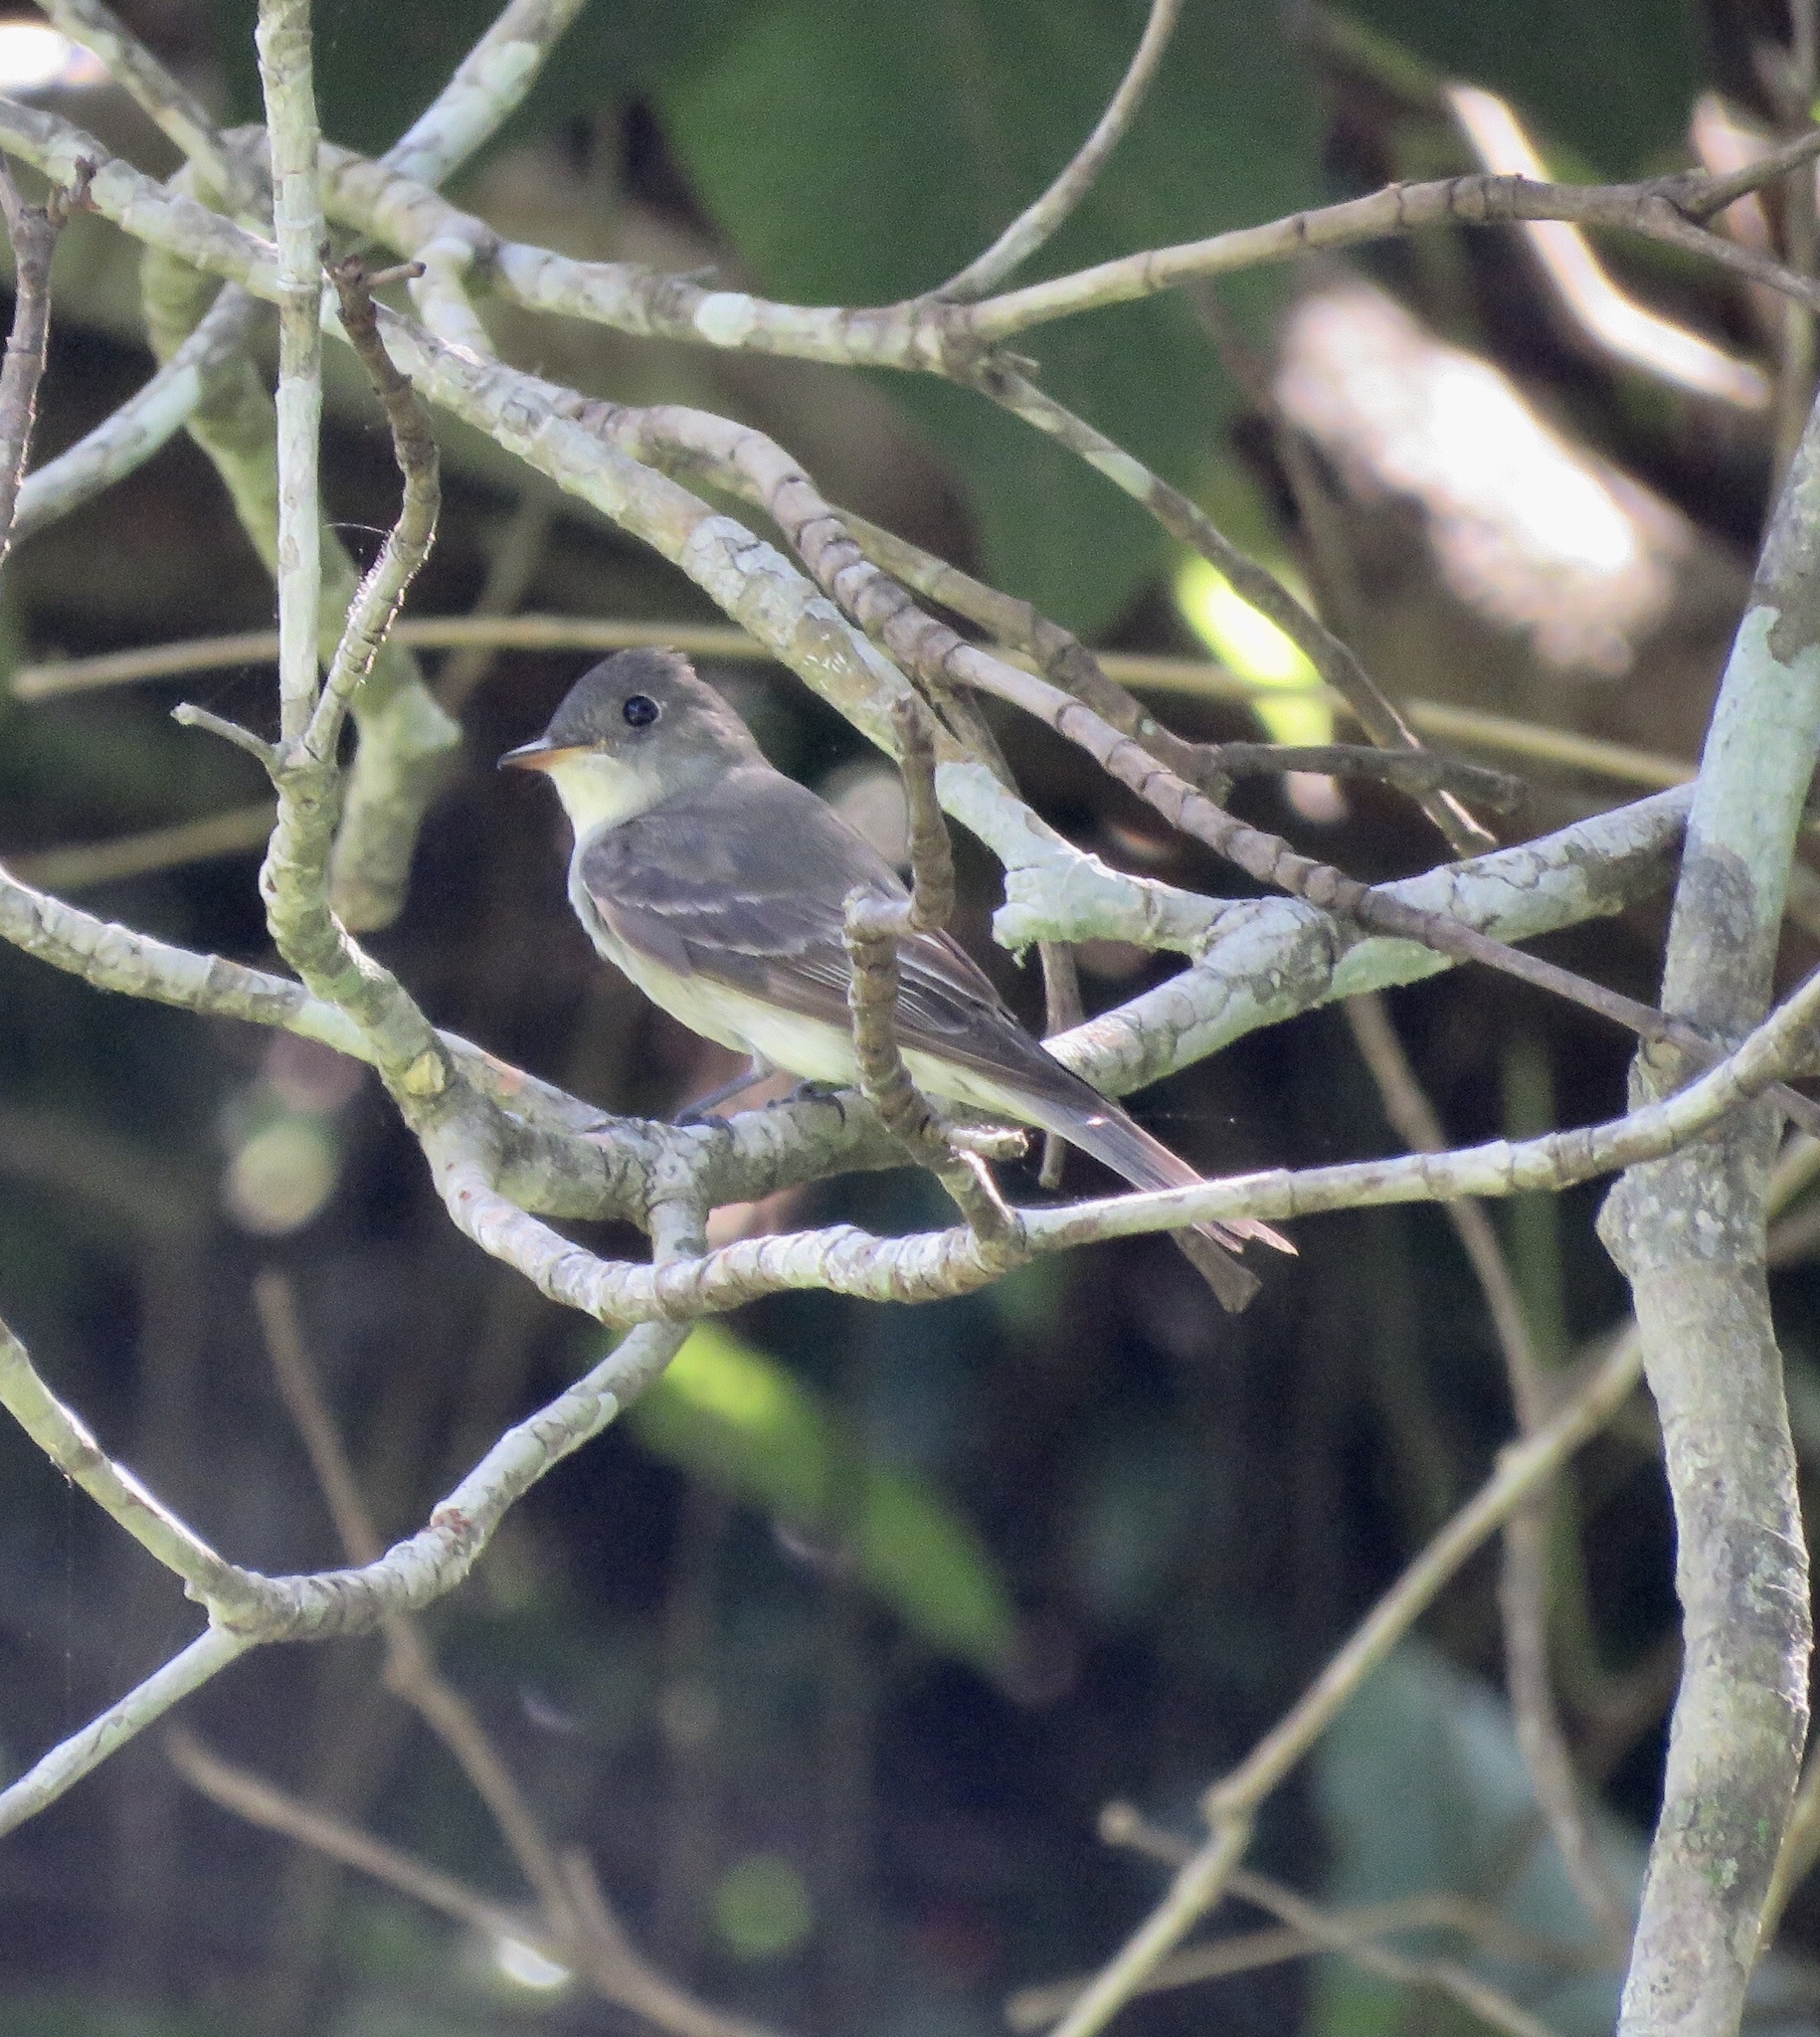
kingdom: Animalia
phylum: Chordata
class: Aves
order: Passeriformes
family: Tyrannidae
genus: Contopus
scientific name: Contopus virens
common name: Eastern wood-pewee
